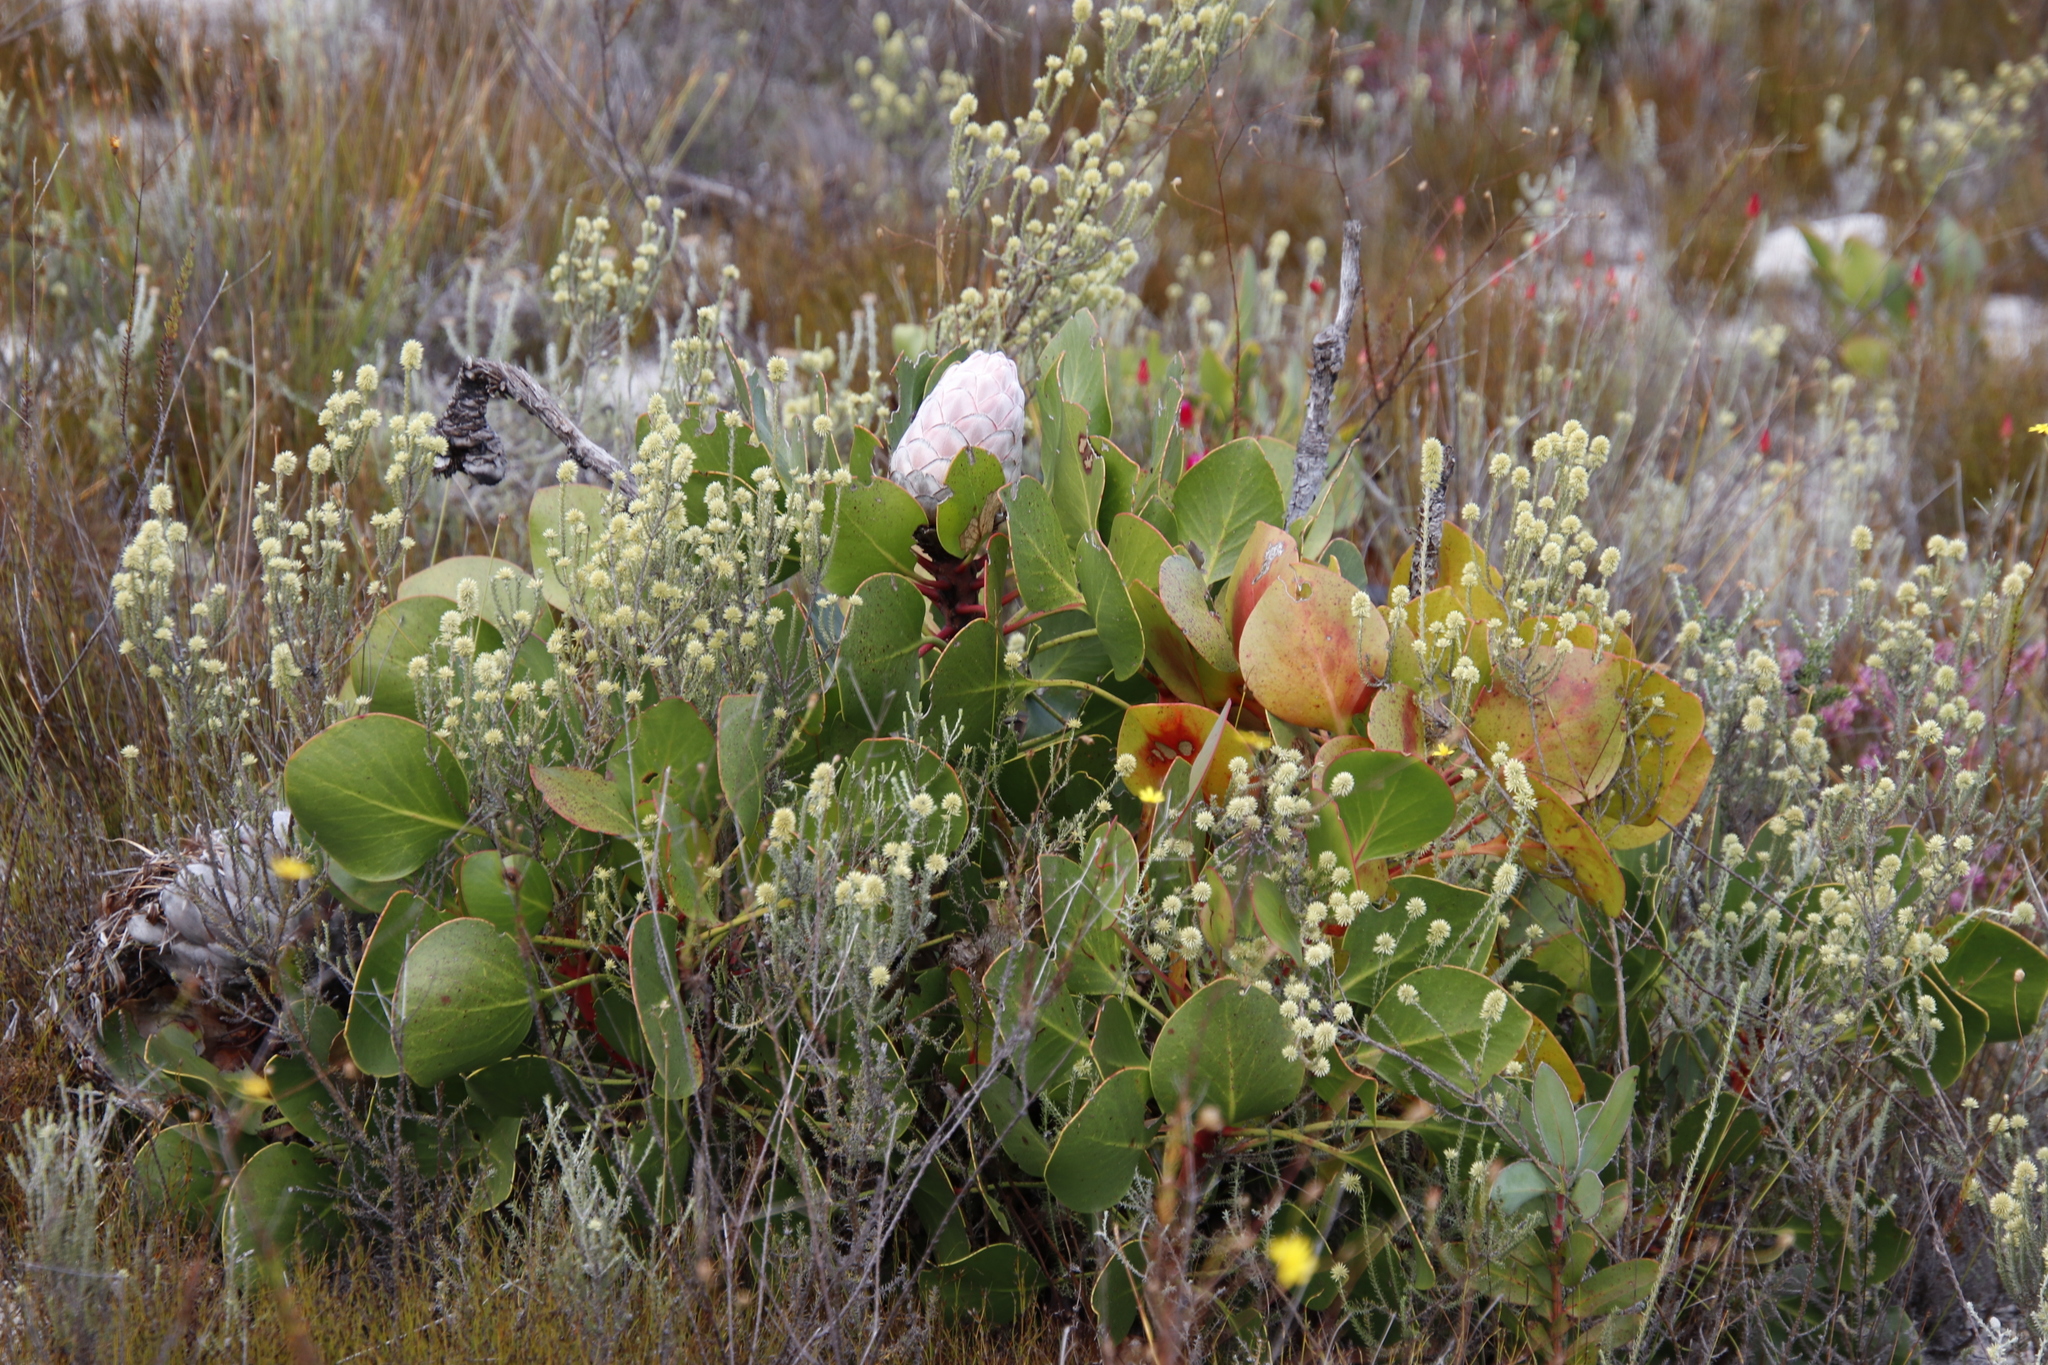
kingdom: Plantae
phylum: Tracheophyta
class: Magnoliopsida
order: Proteales
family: Proteaceae
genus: Protea
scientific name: Protea cynaroides
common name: King protea
